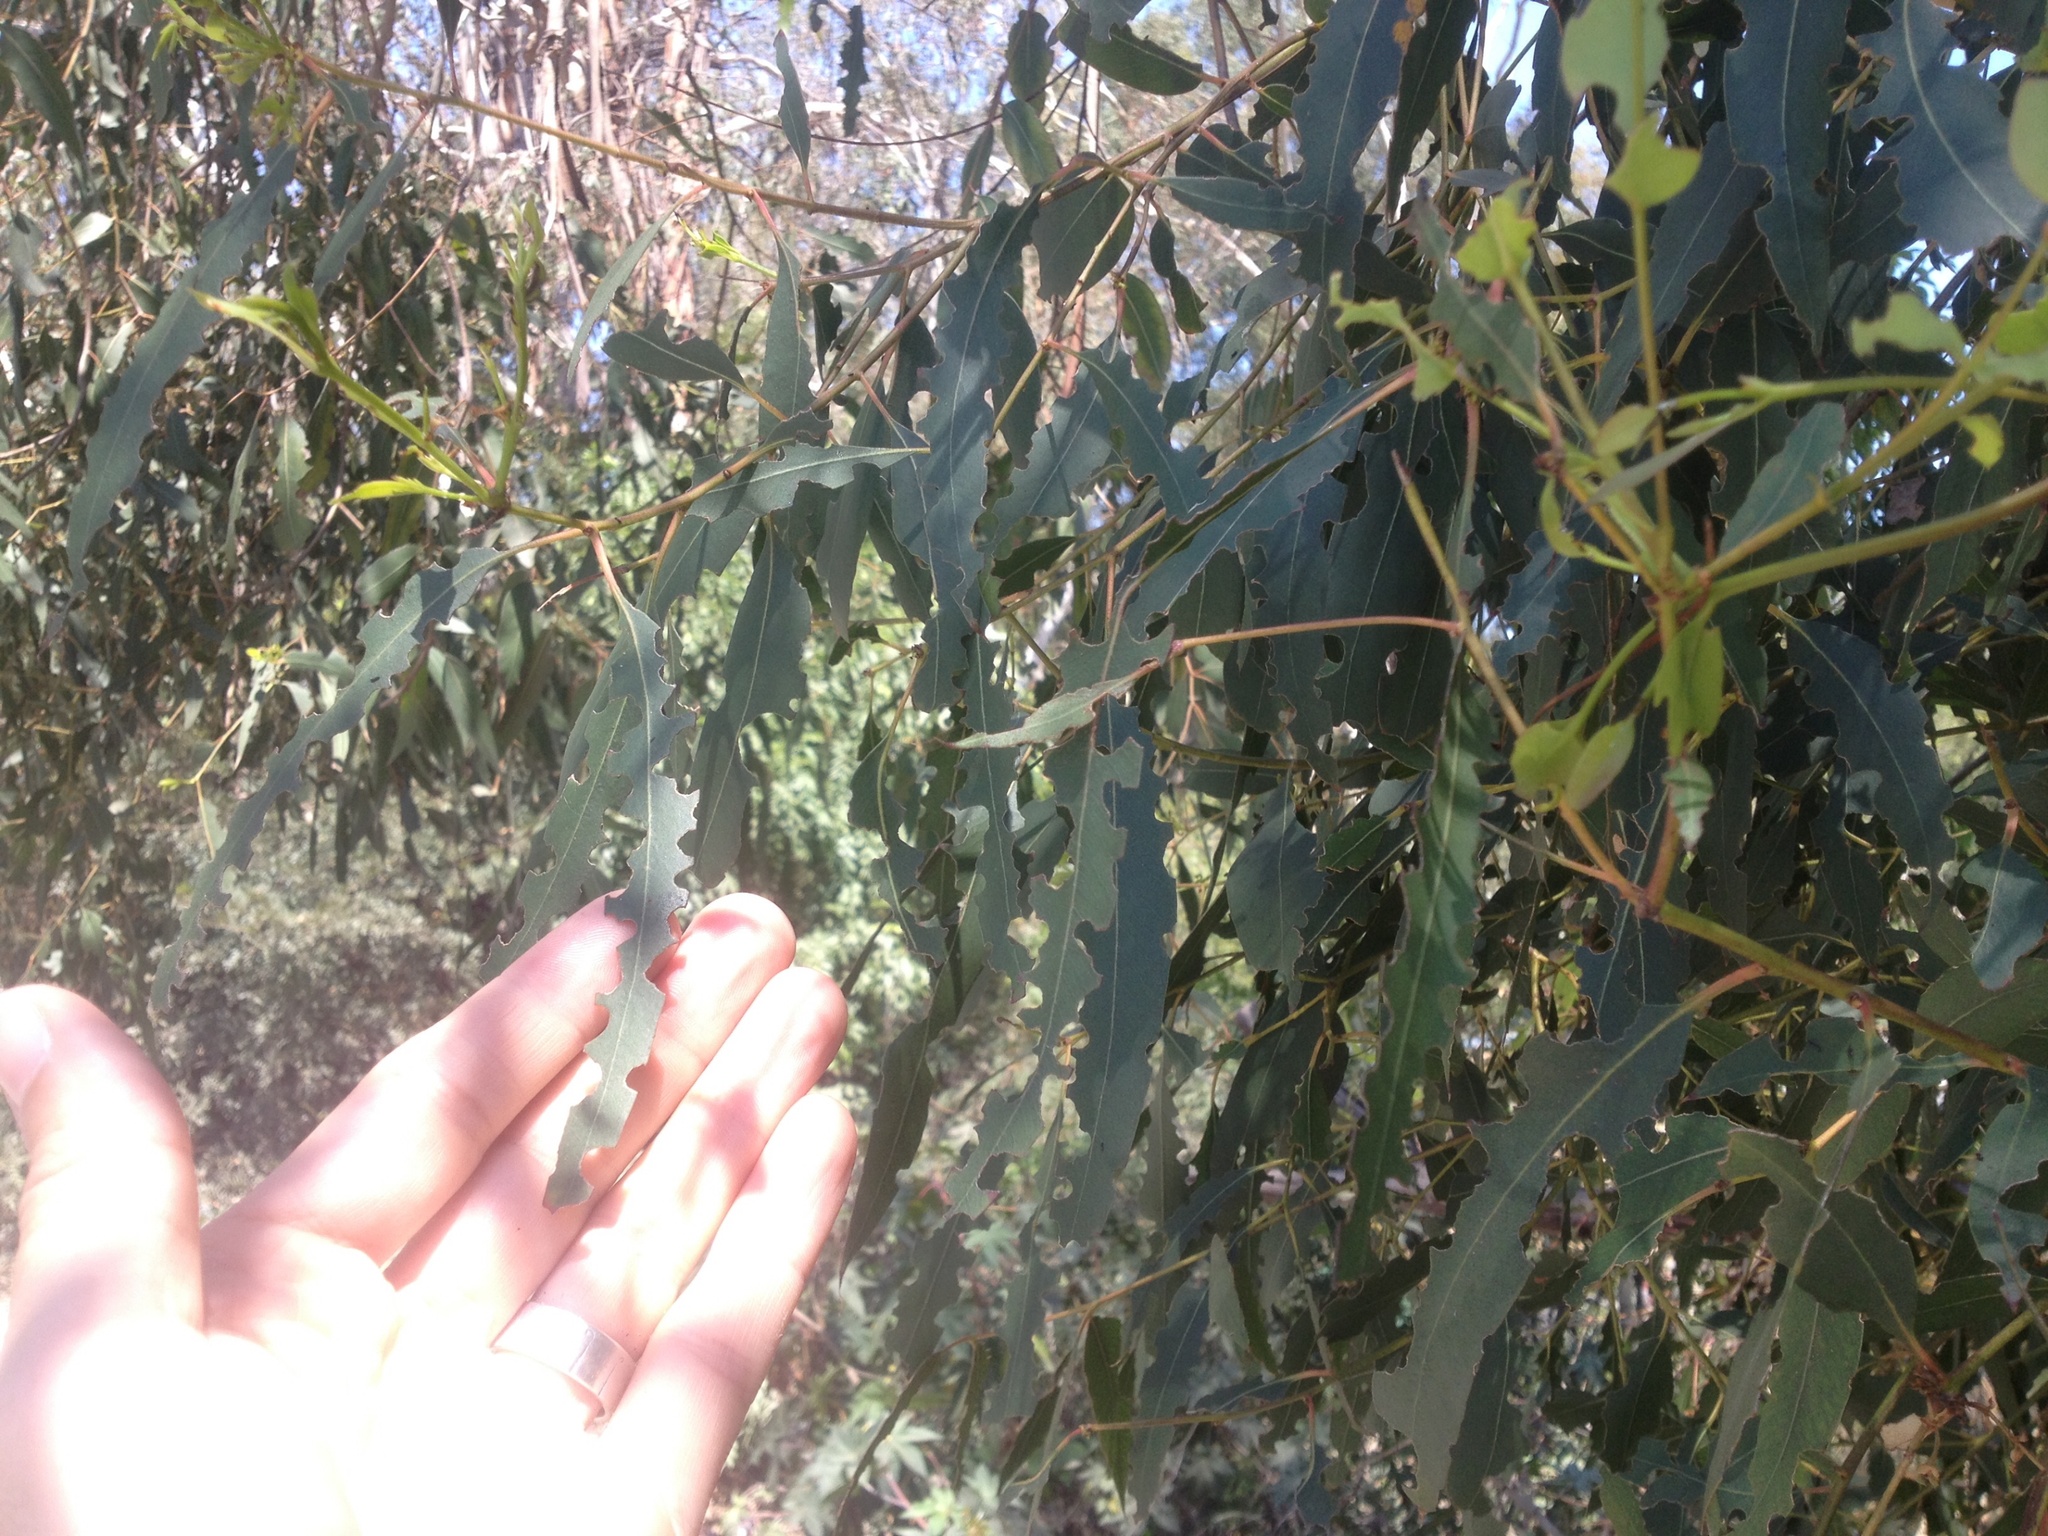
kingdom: Animalia
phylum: Arthropoda
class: Insecta
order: Coleoptera
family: Chrysomelidae
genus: Trachymela
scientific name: Trachymela sloanei
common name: Australian tortoise beetle
